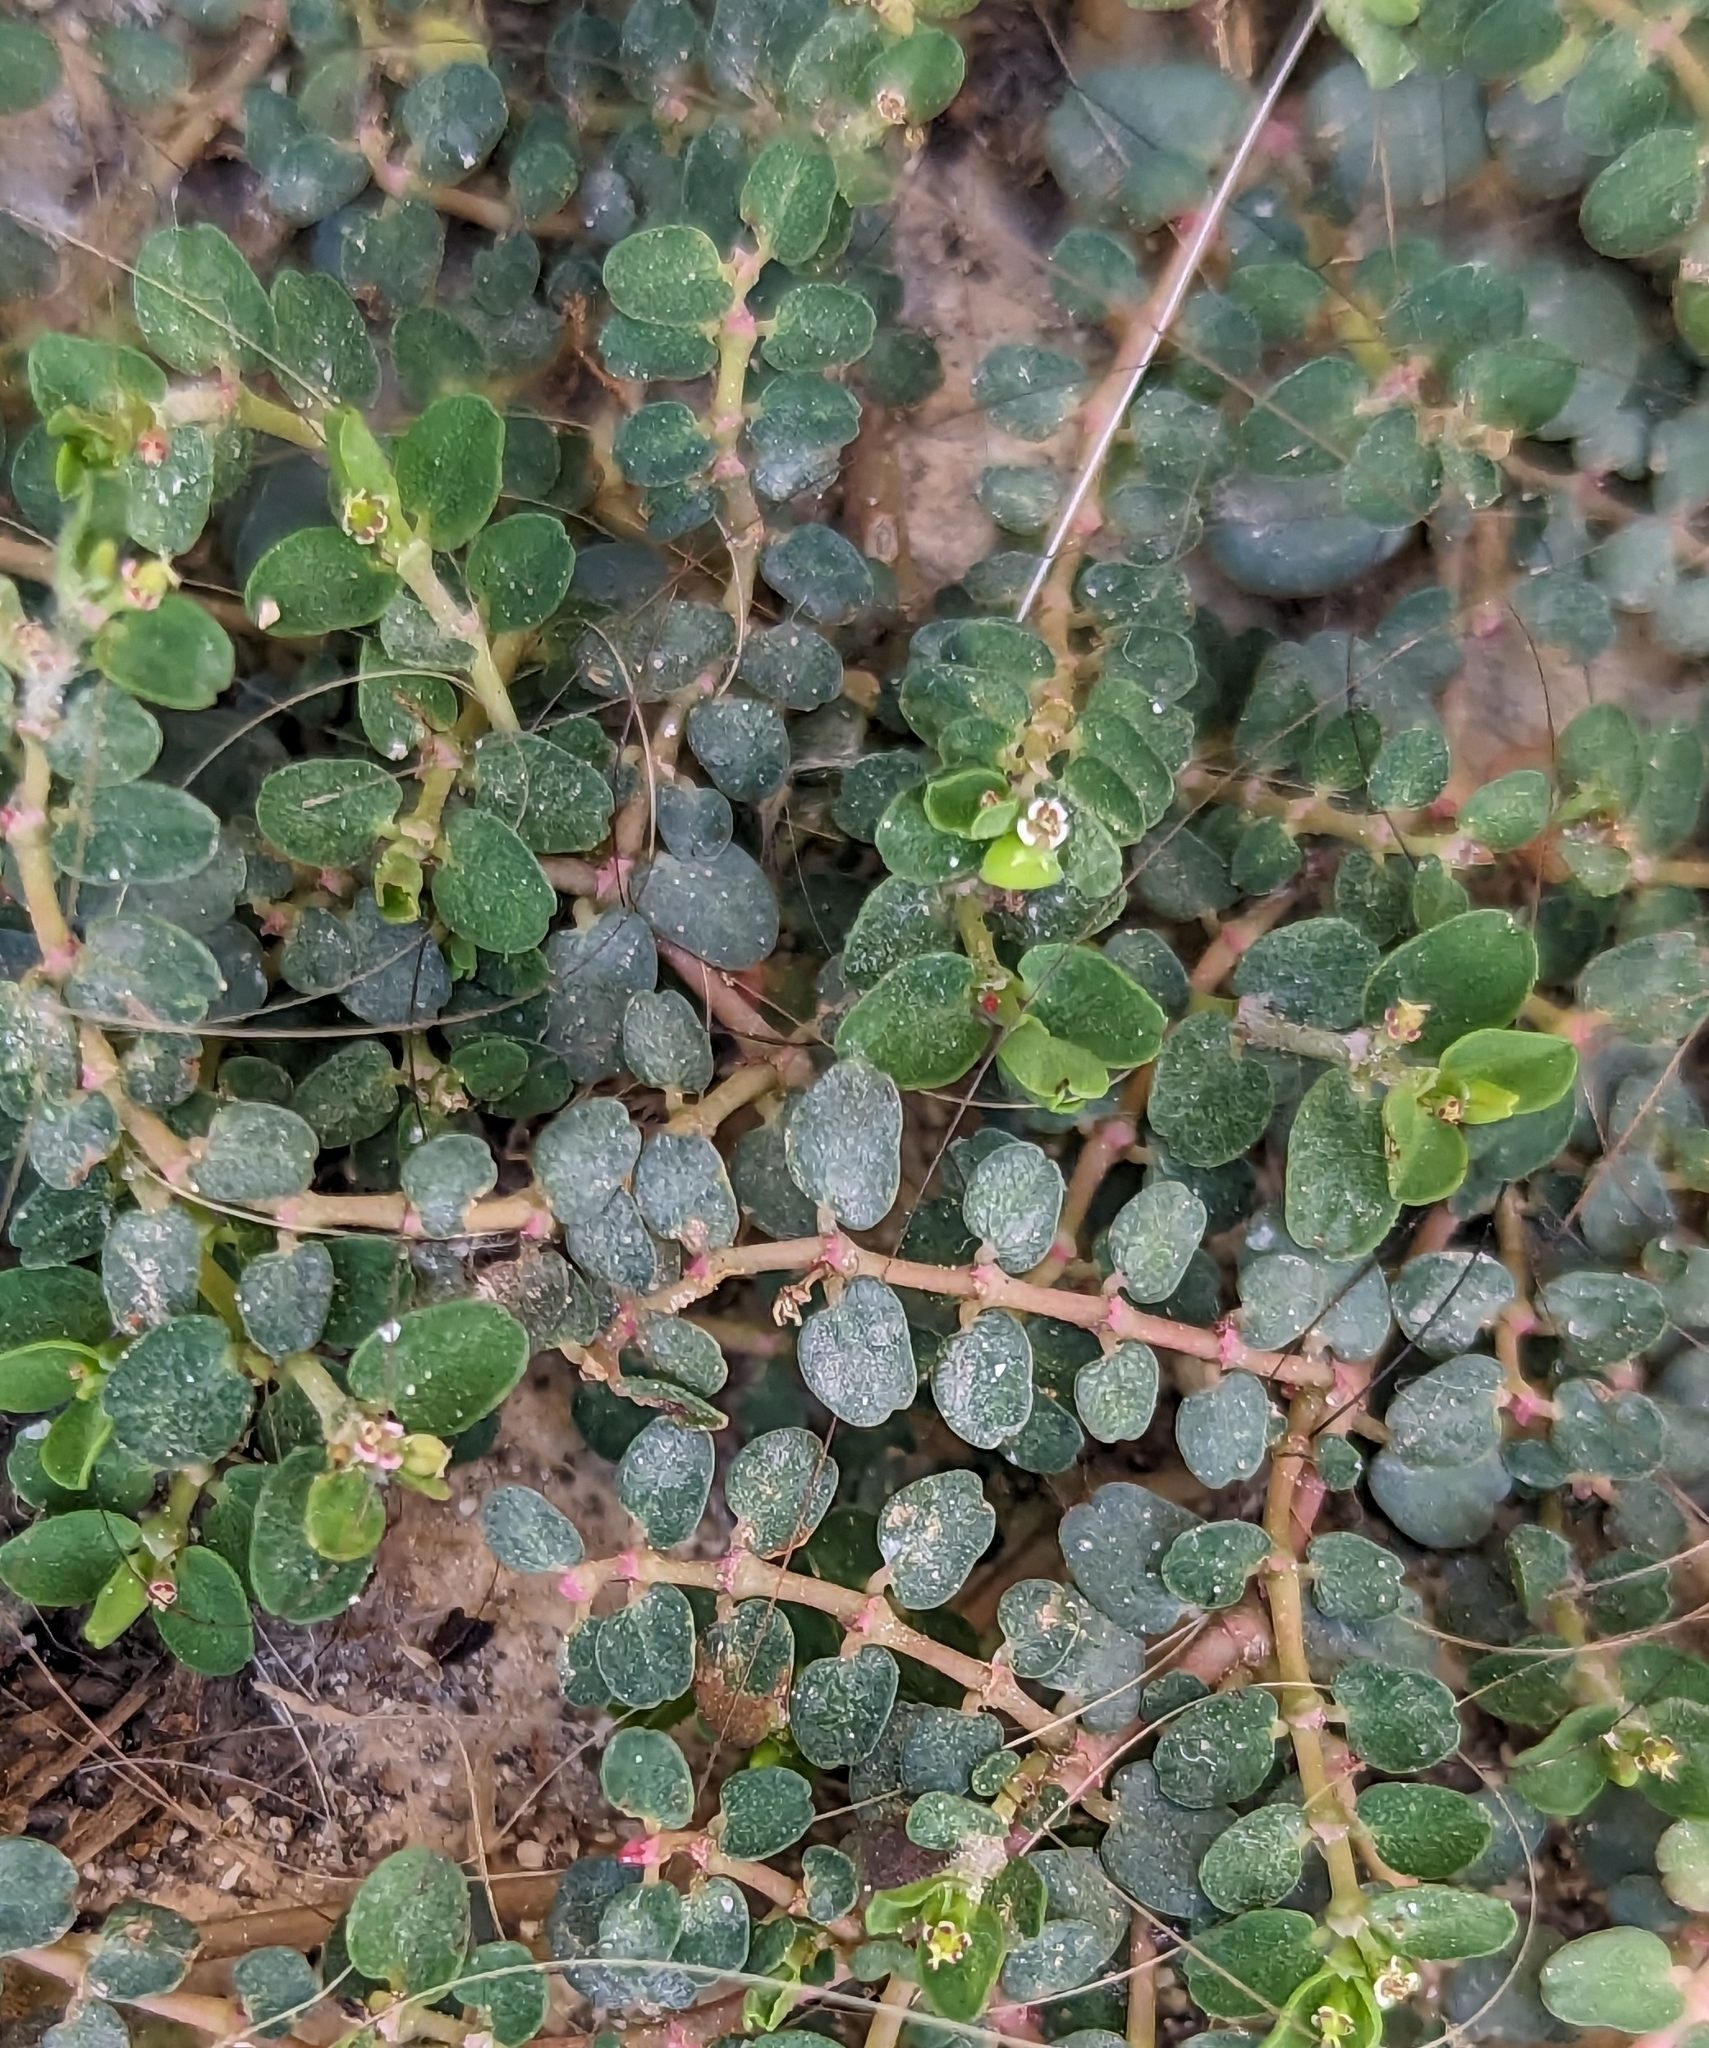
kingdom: Plantae
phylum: Tracheophyta
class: Magnoliopsida
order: Malpighiales
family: Euphorbiaceae
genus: Euphorbia
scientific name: Euphorbia serpens
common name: Matted sandmat
